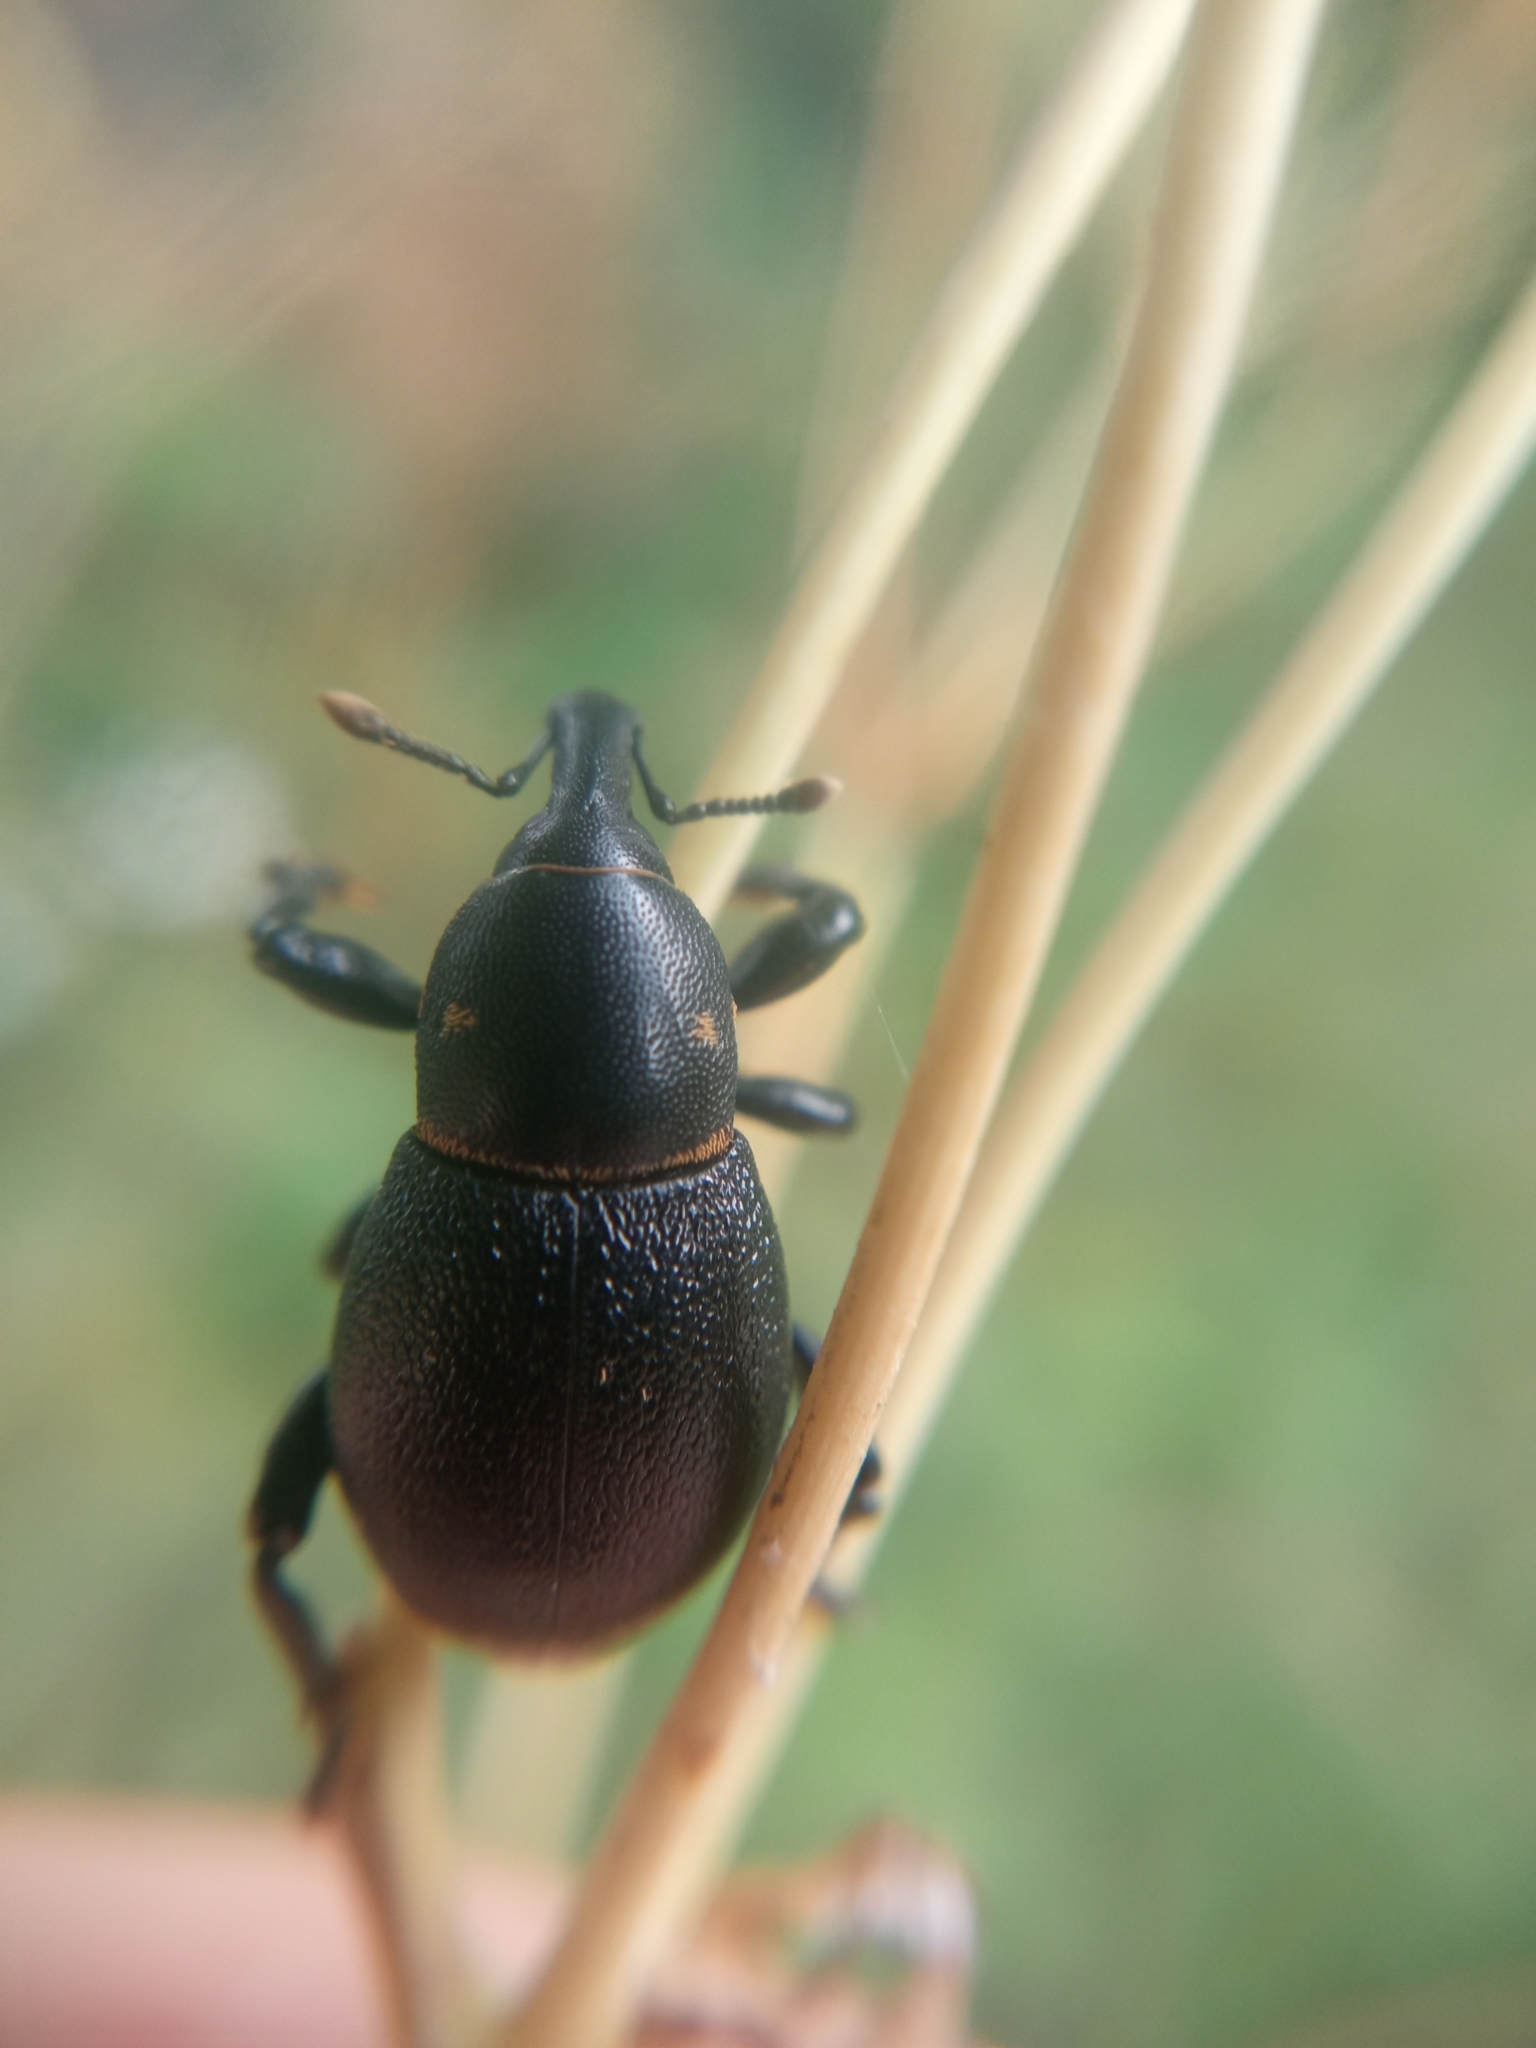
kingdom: Animalia
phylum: Arthropoda
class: Insecta
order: Coleoptera
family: Curculionidae
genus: Liparus
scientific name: Liparus coronatus
